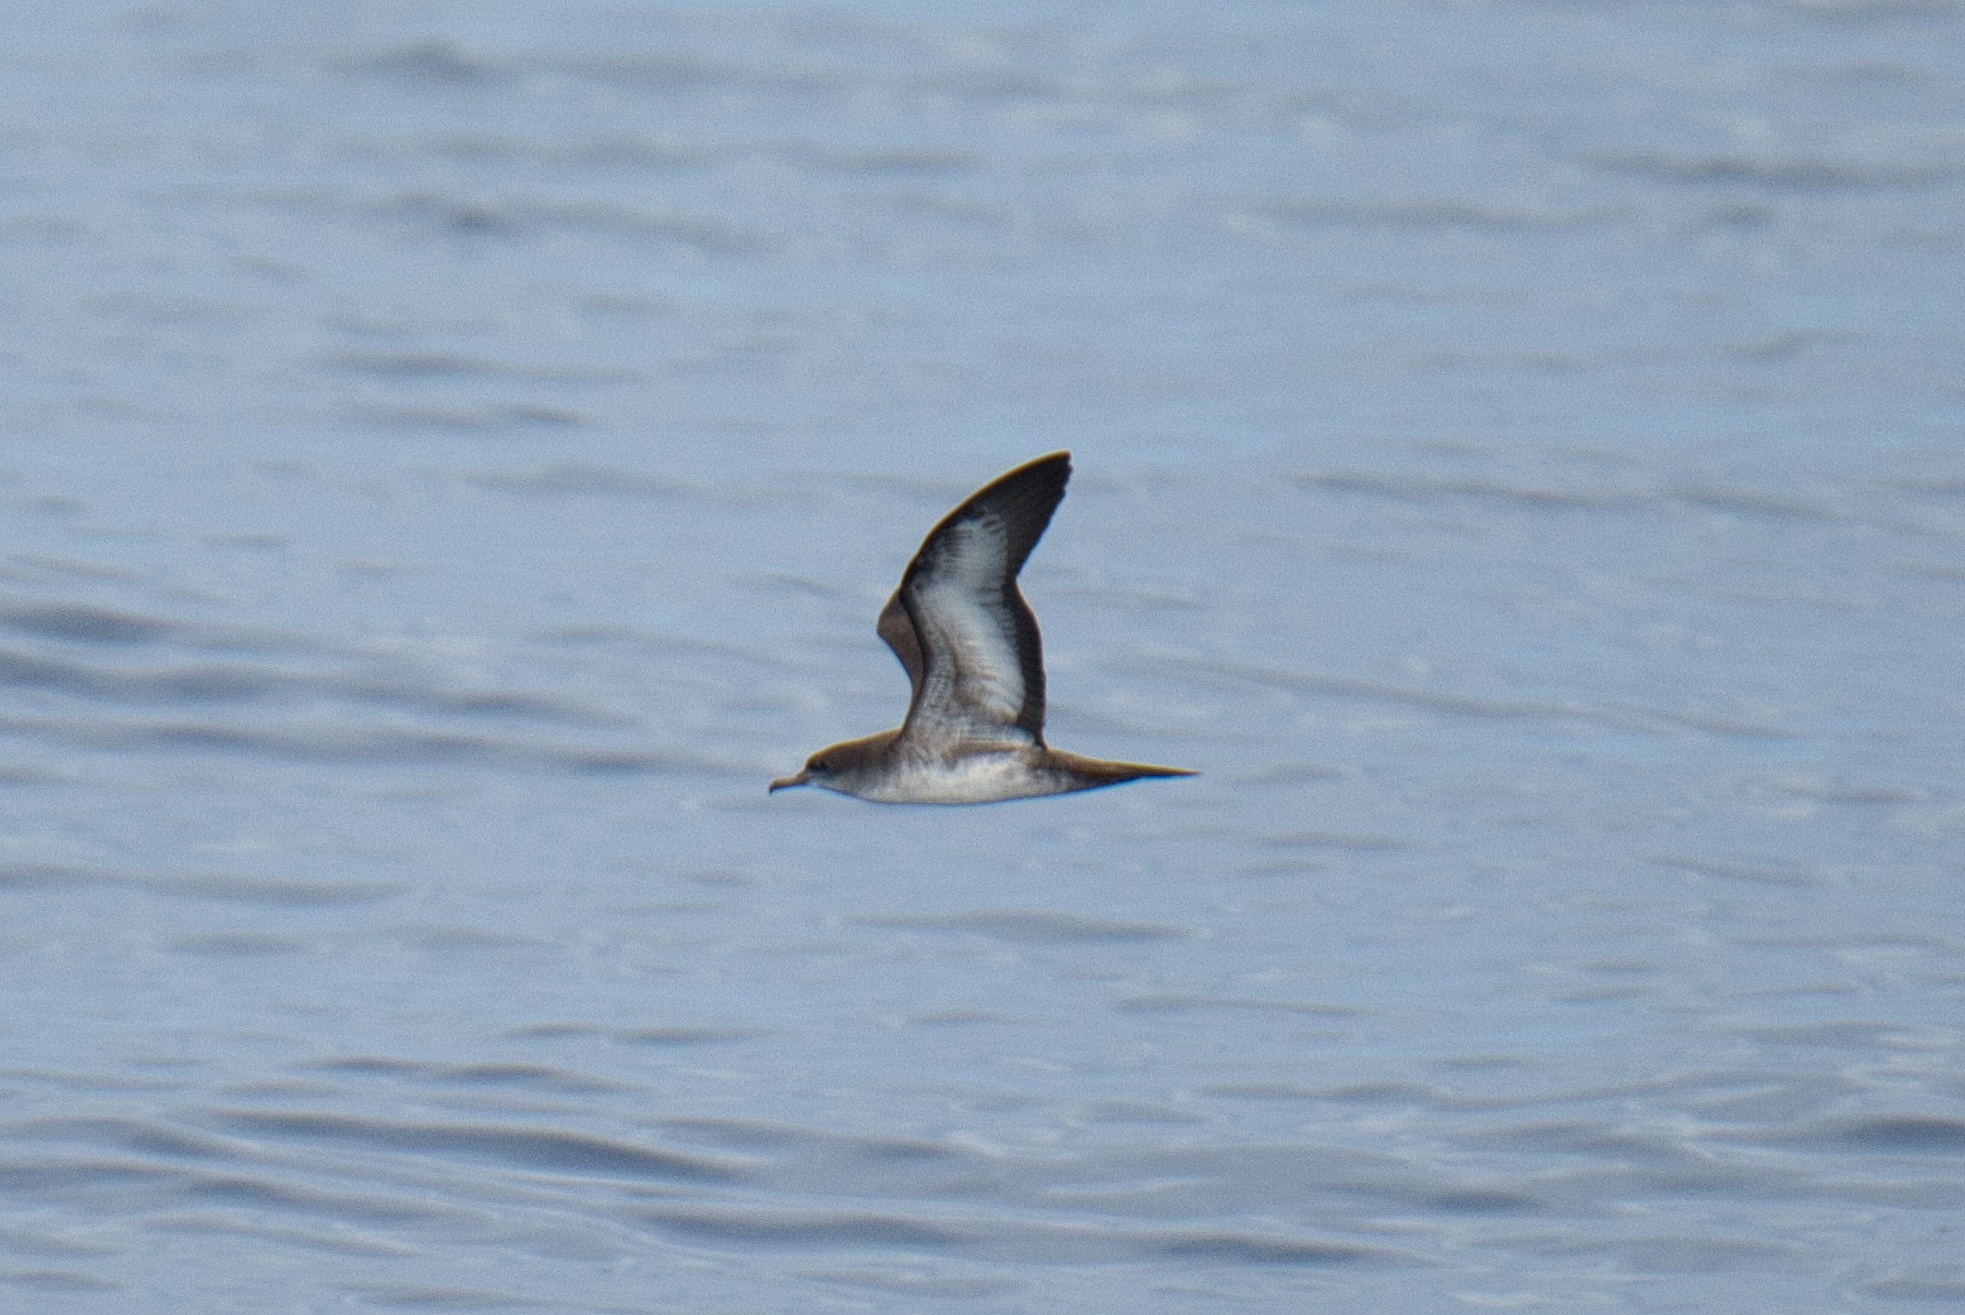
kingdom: Animalia
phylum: Chordata
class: Aves
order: Procellariiformes
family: Procellariidae
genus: Puffinus
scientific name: Puffinus pacificus
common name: Wedge-tailed shearwater
